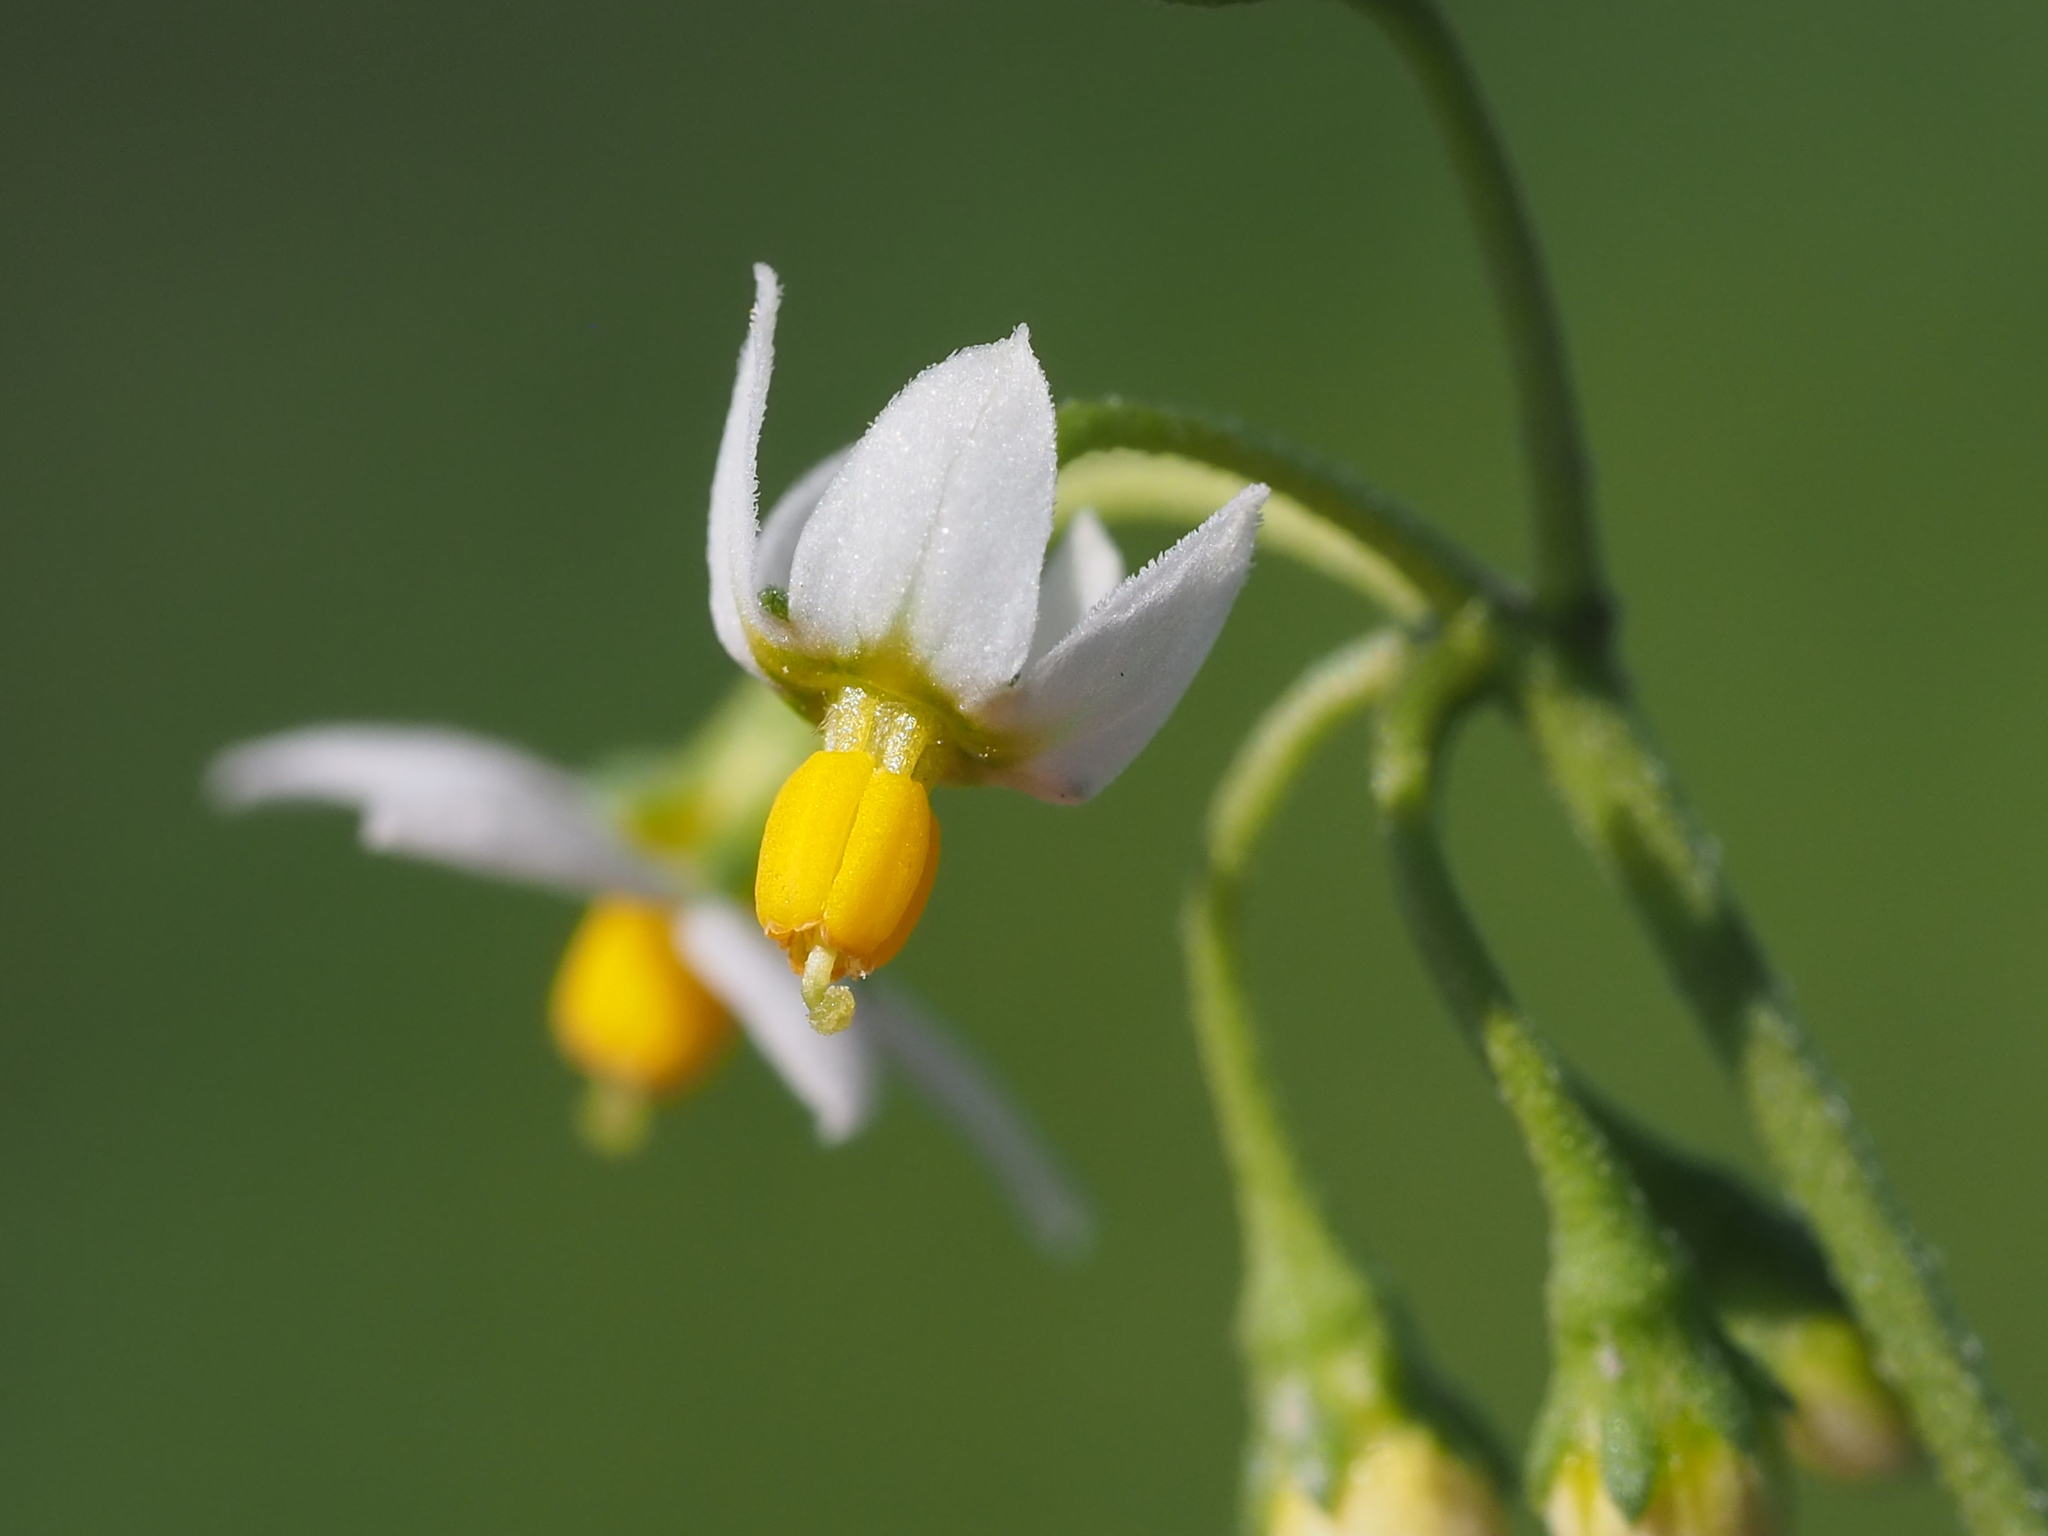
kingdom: Plantae
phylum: Tracheophyta
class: Magnoliopsida
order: Solanales
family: Solanaceae
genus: Solanum
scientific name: Solanum americanum
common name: American black nightshade
